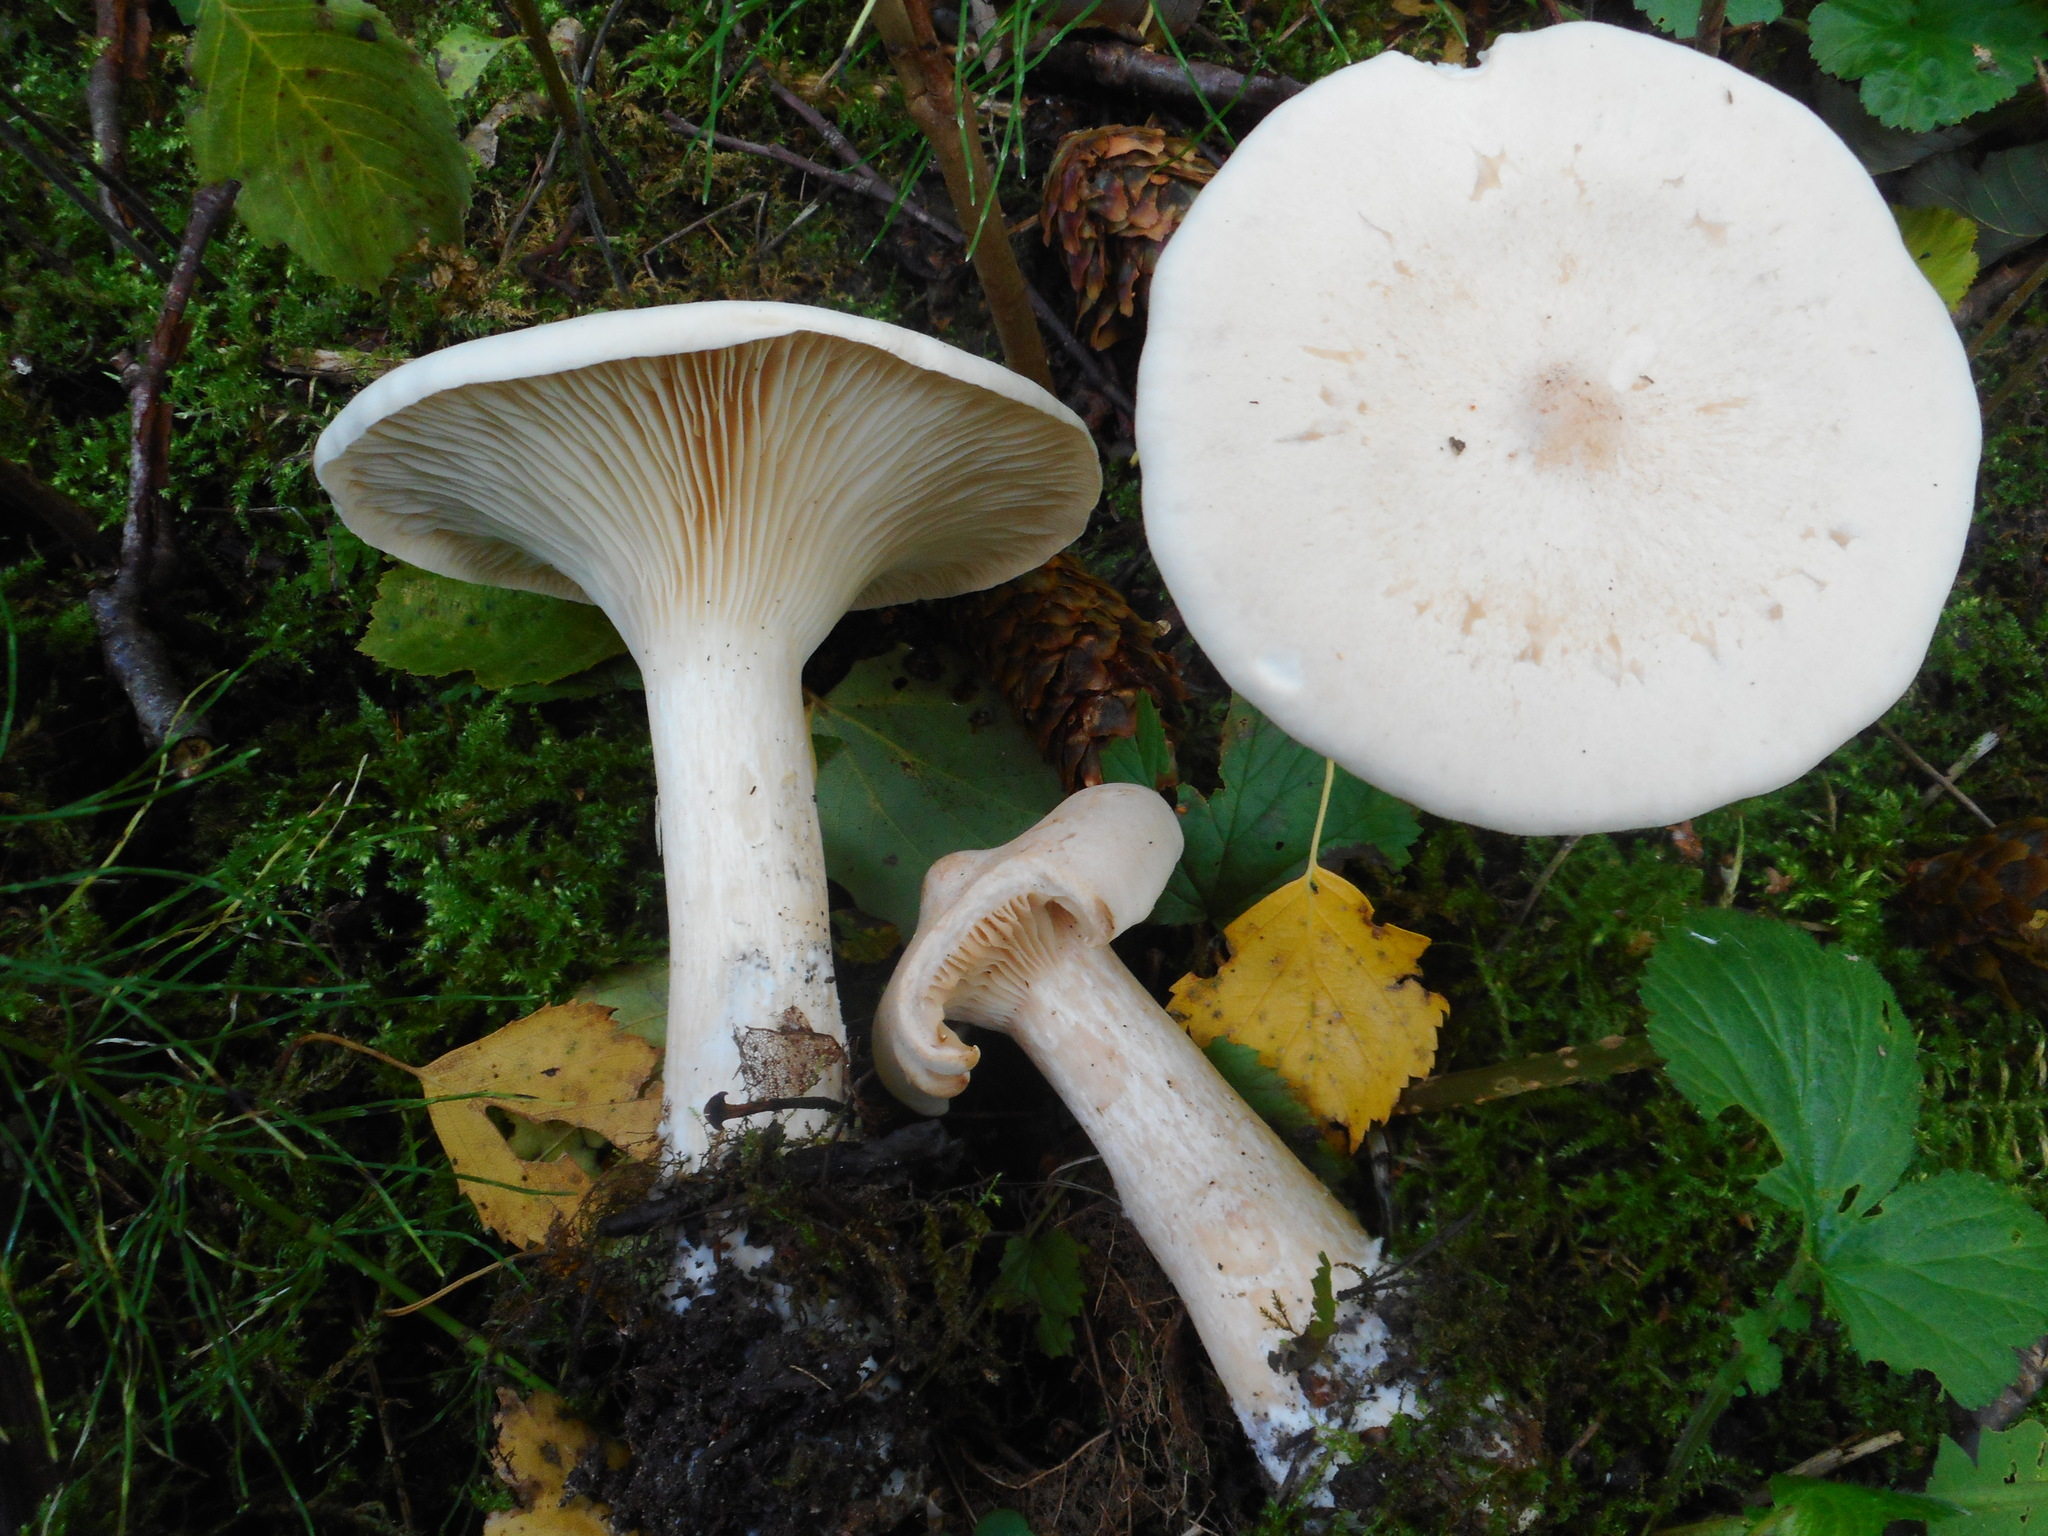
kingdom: Fungi
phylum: Basidiomycota
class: Agaricomycetes
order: Agaricales
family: Tricholomataceae
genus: Infundibulicybe
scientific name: Infundibulicybe geotropa
